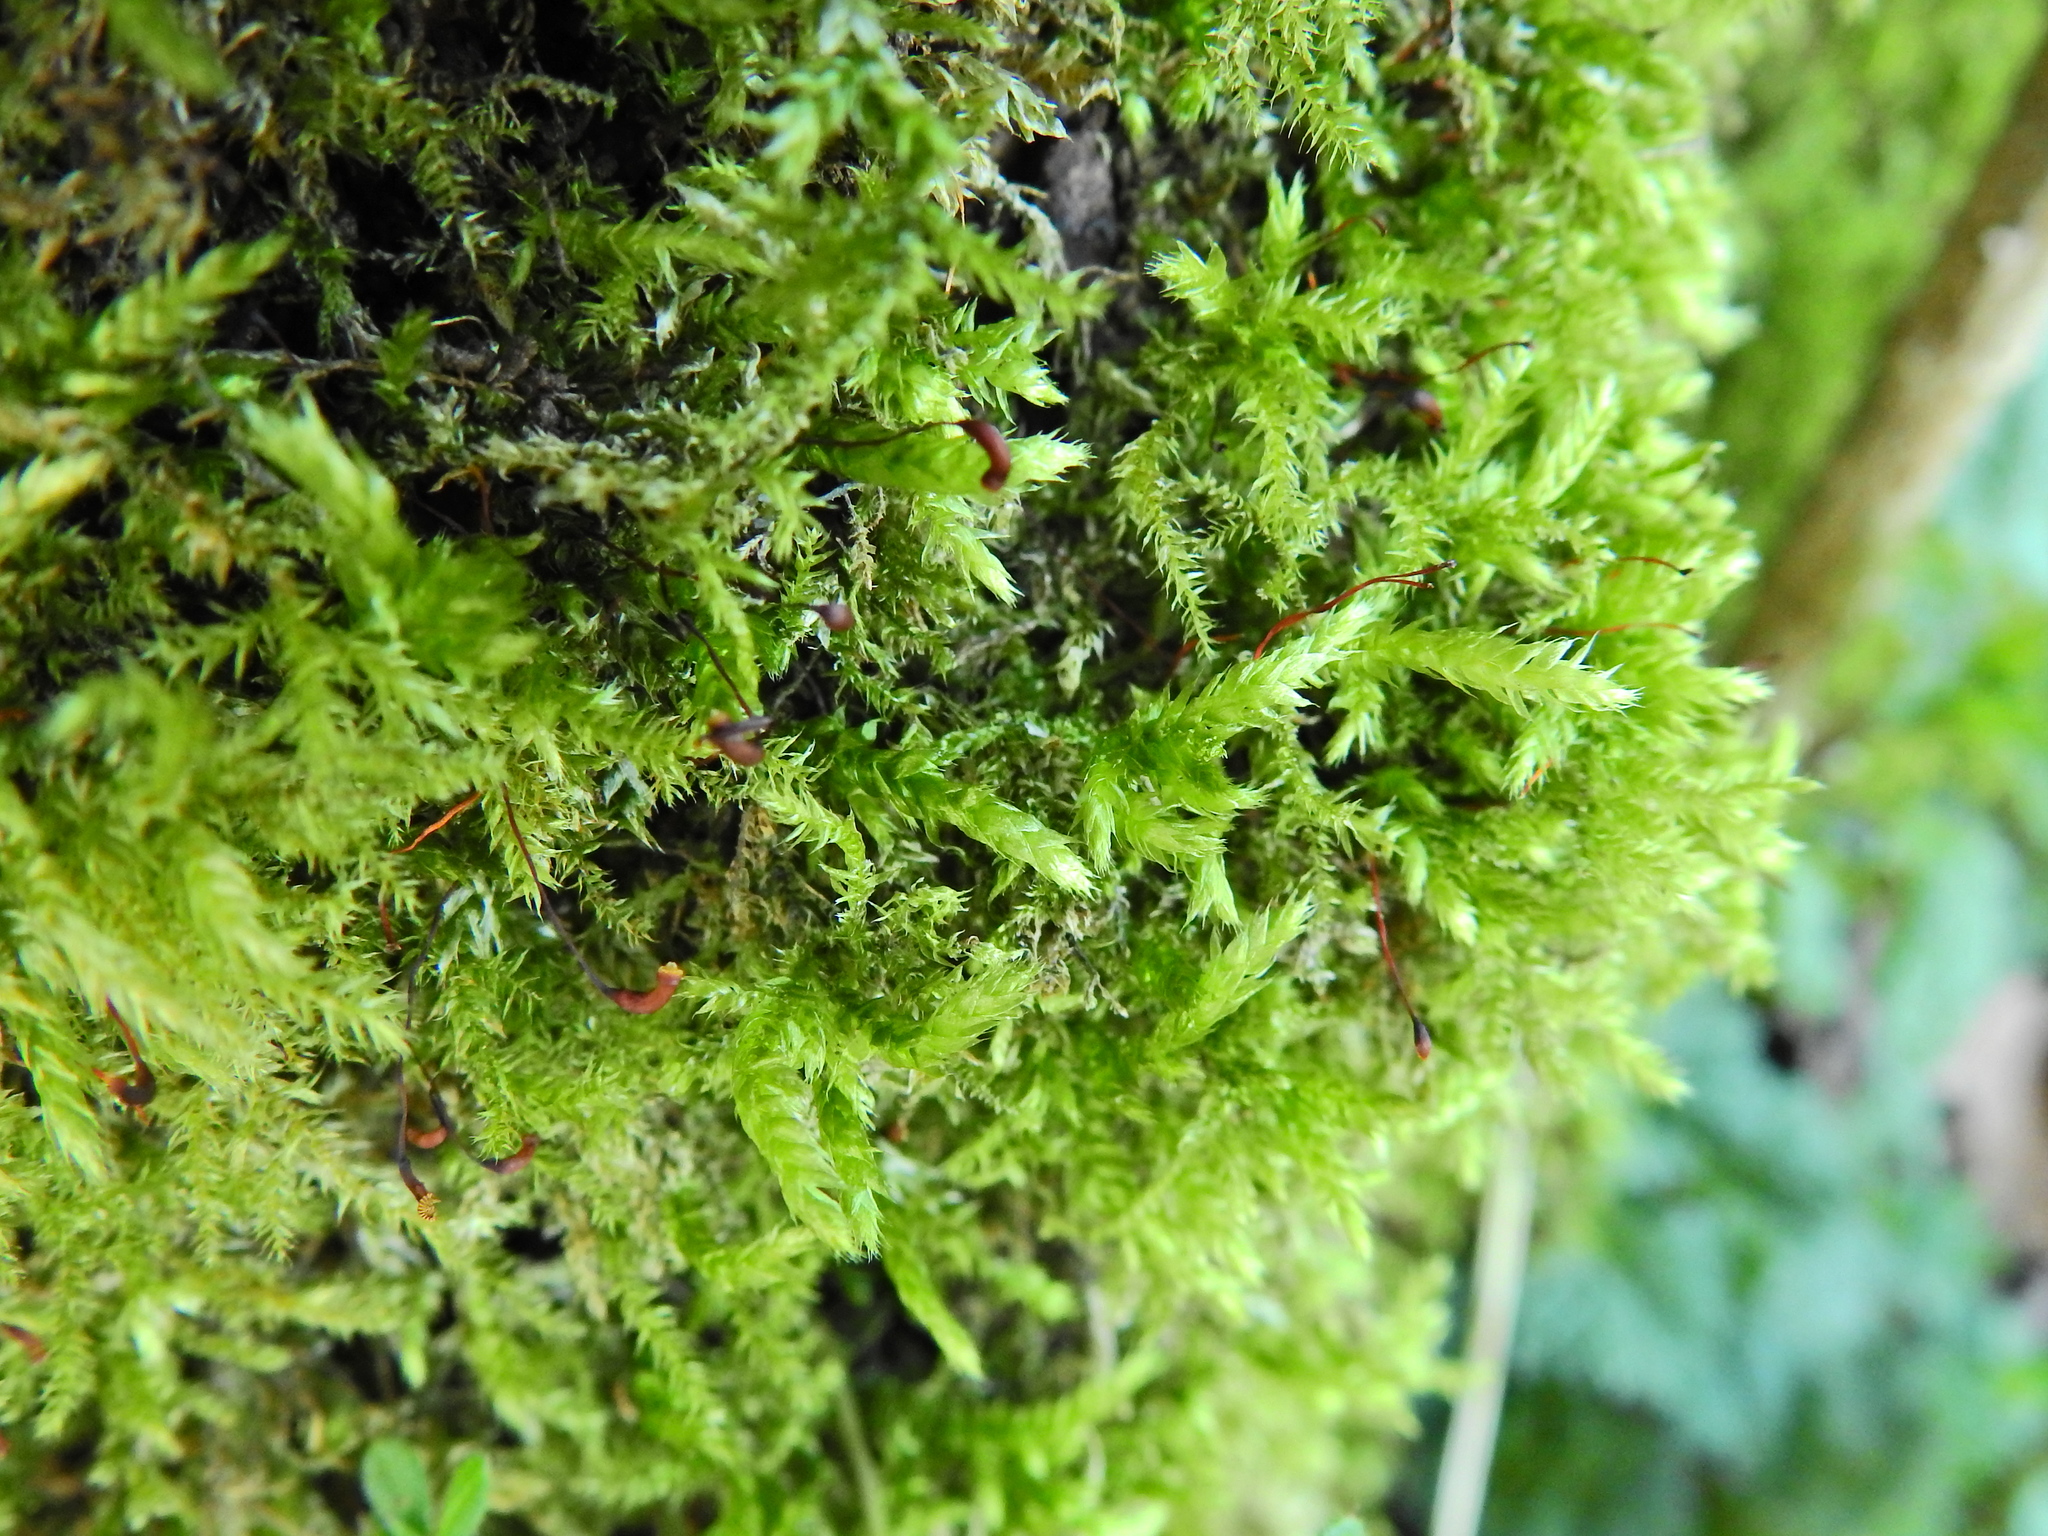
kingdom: Plantae
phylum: Bryophyta
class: Bryopsida
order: Hypnales
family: Brachytheciaceae
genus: Brachythecium
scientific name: Brachythecium rutabulum
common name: Rough-stalked feather-moss
